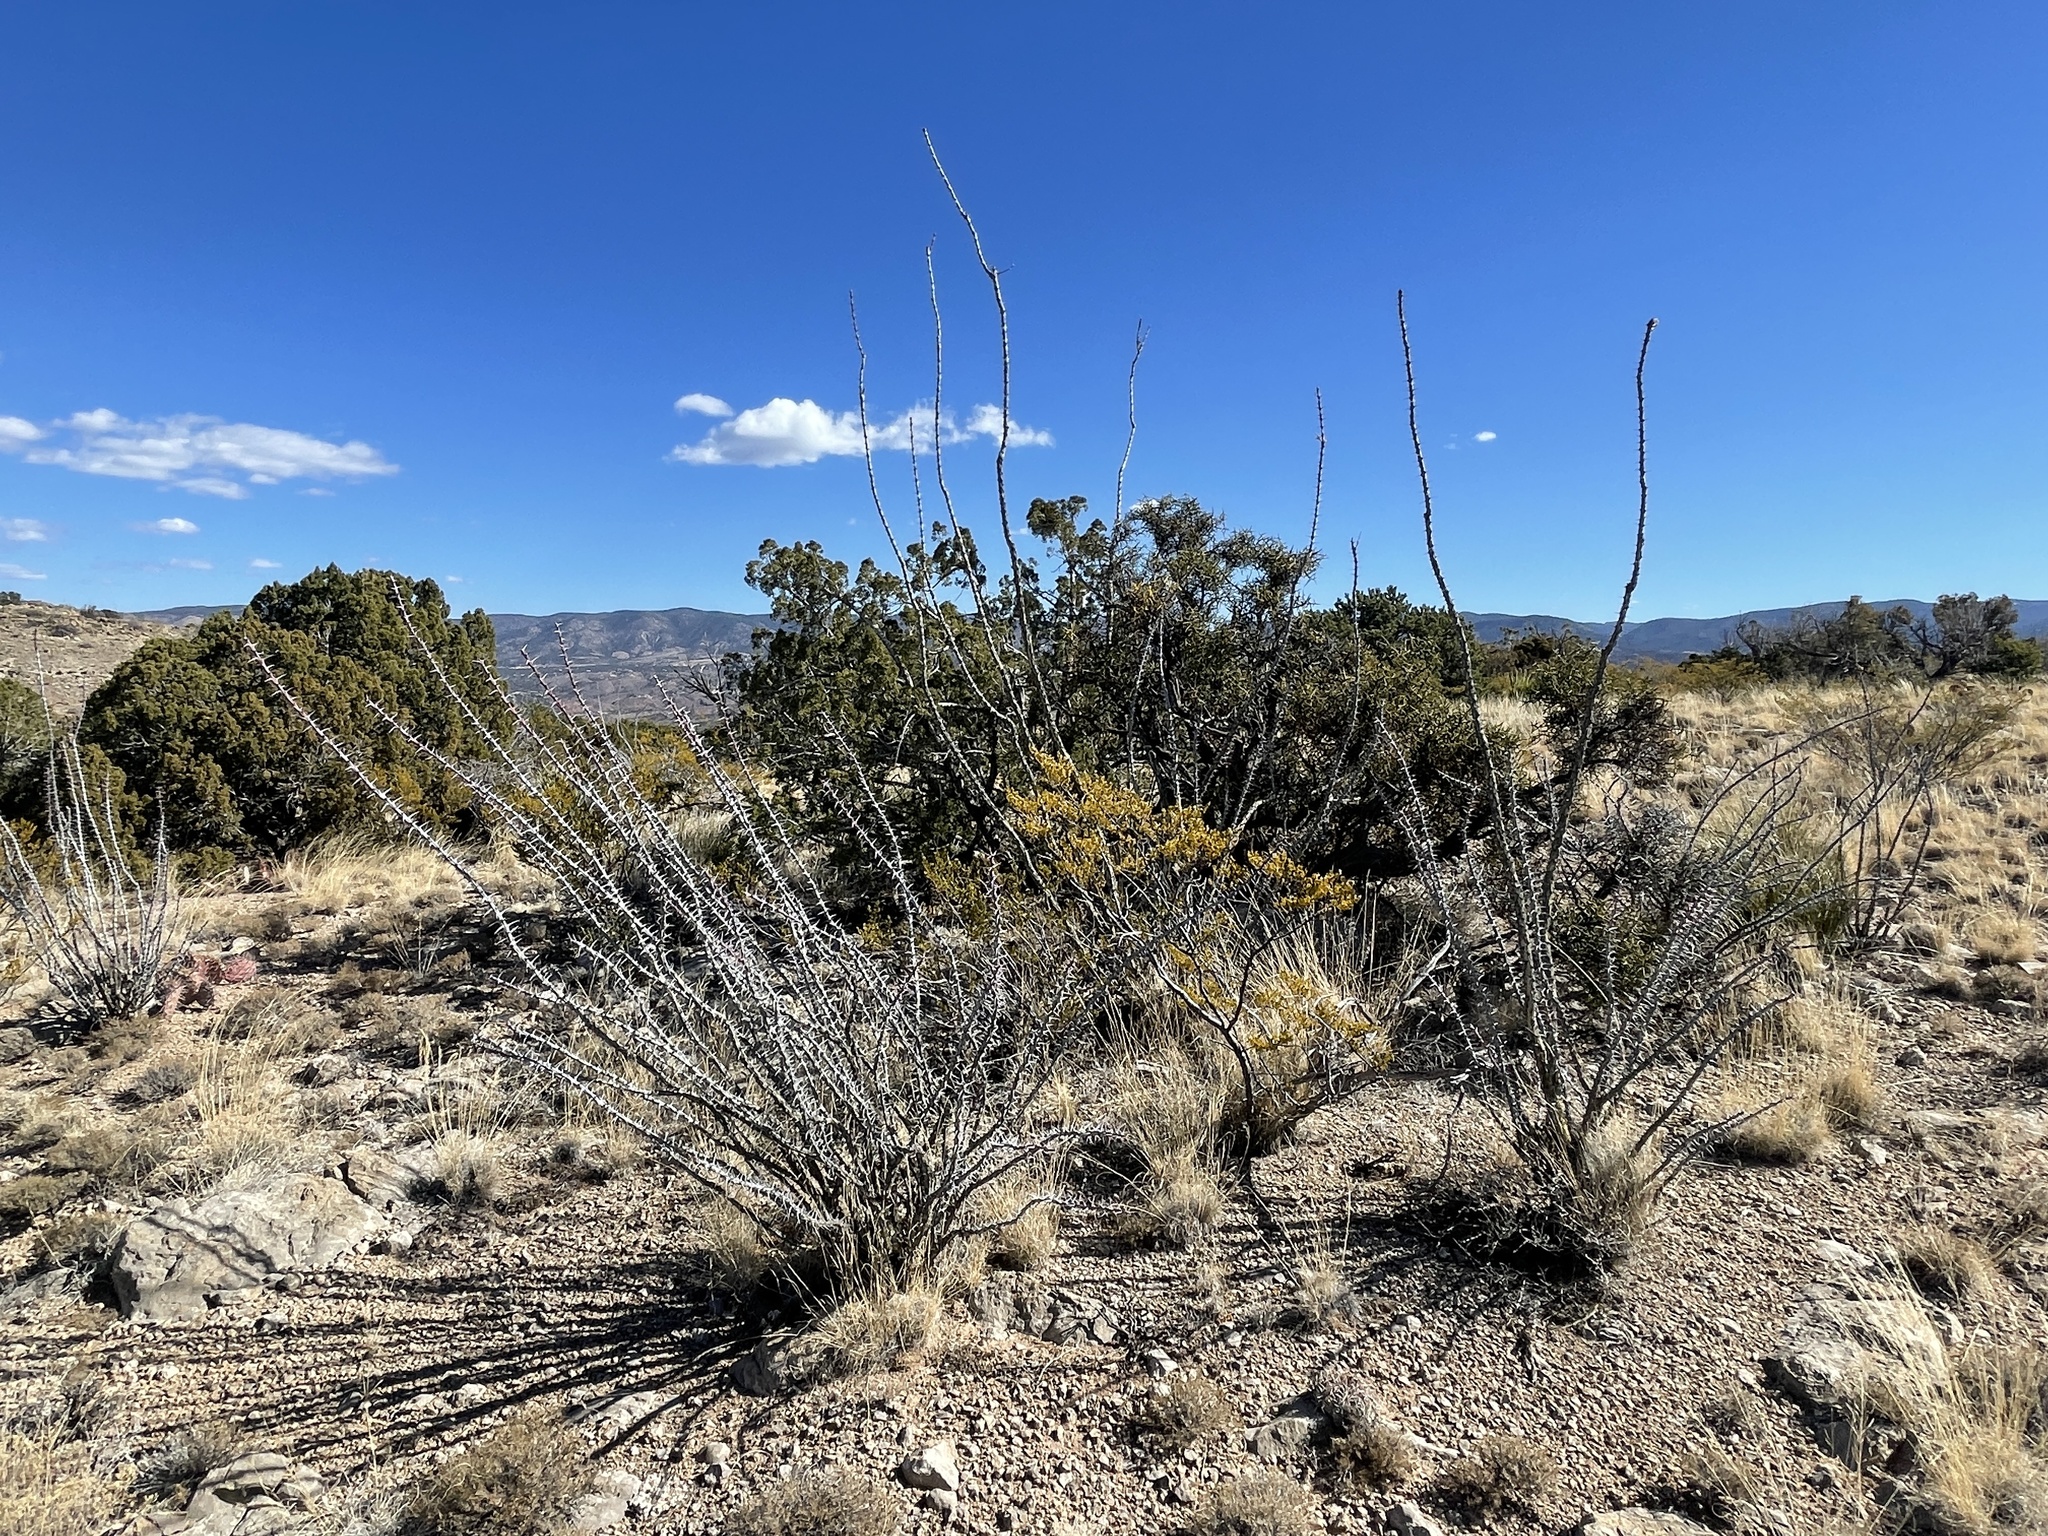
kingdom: Plantae
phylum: Tracheophyta
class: Magnoliopsida
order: Ericales
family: Fouquieriaceae
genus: Fouquieria
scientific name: Fouquieria splendens
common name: Vine-cactus
